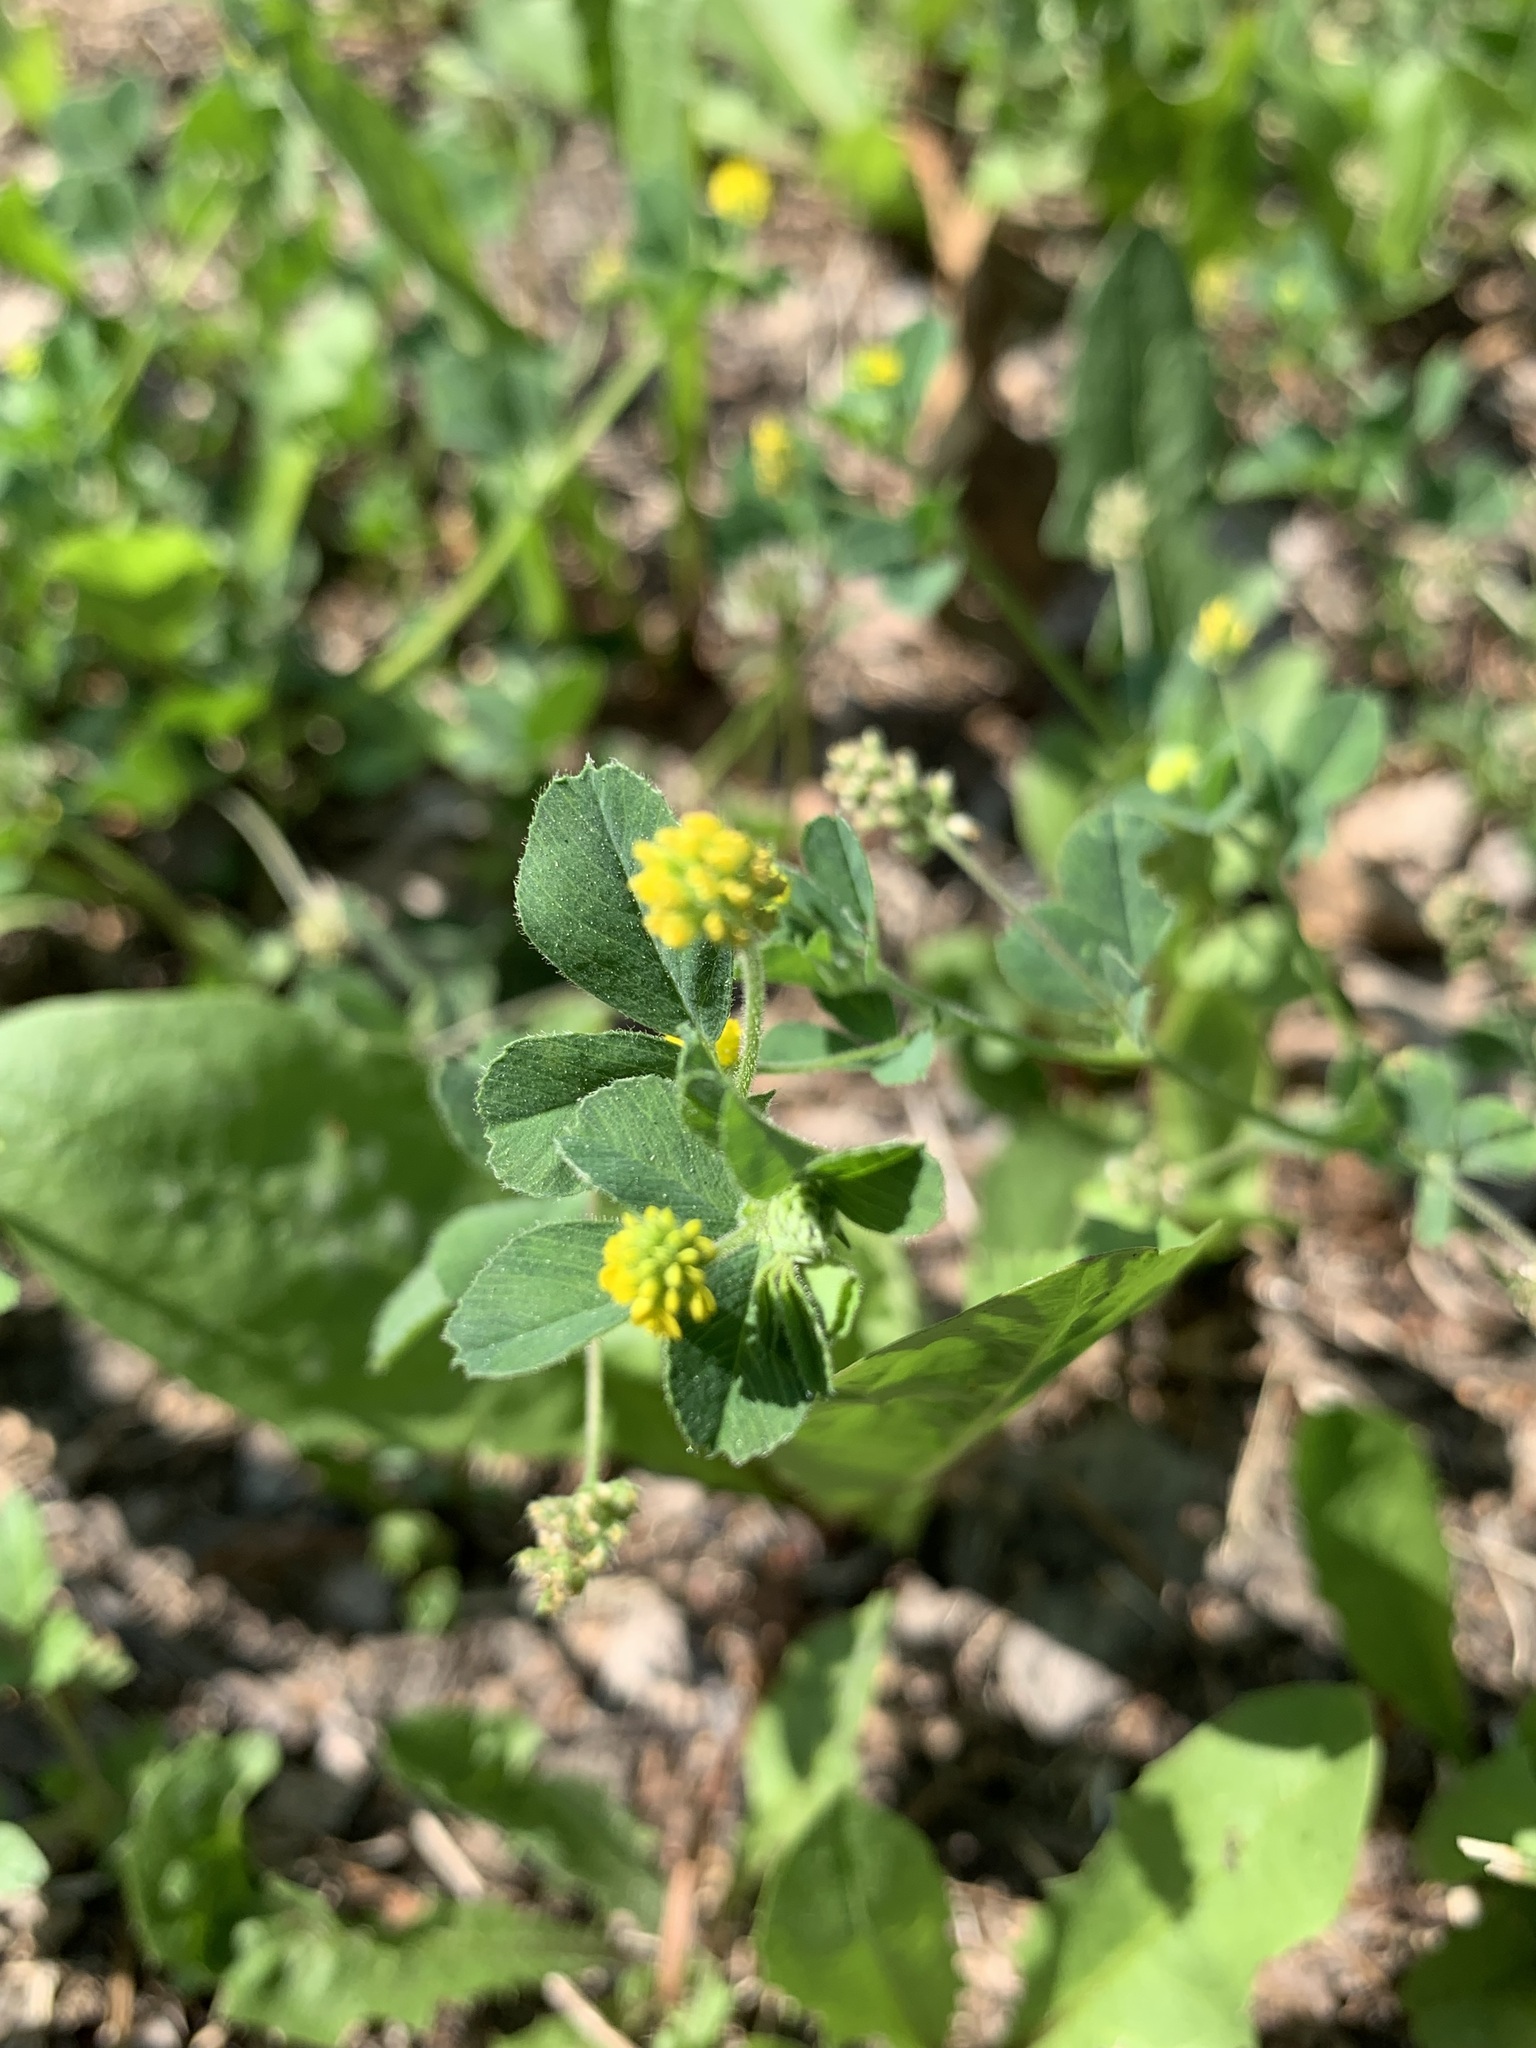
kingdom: Plantae
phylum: Tracheophyta
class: Magnoliopsida
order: Fabales
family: Fabaceae
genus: Medicago
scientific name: Medicago lupulina
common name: Black medick
